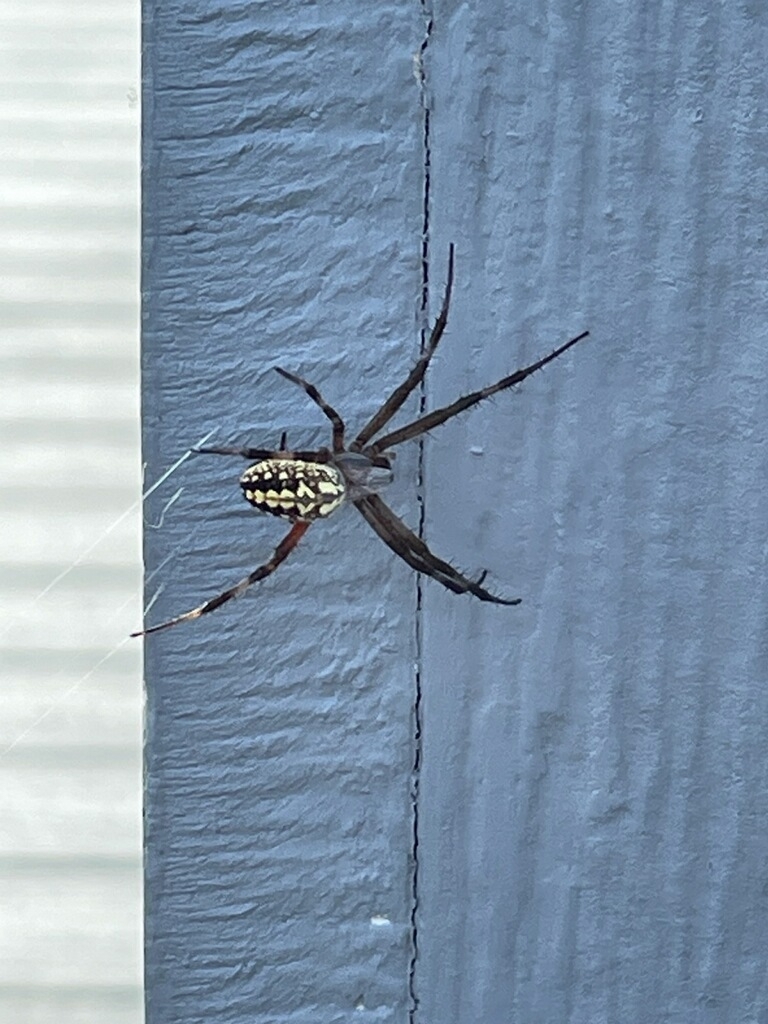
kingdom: Animalia
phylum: Arthropoda
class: Arachnida
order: Araneae
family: Araneidae
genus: Neoscona
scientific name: Neoscona oaxacensis
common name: Orb weavers
